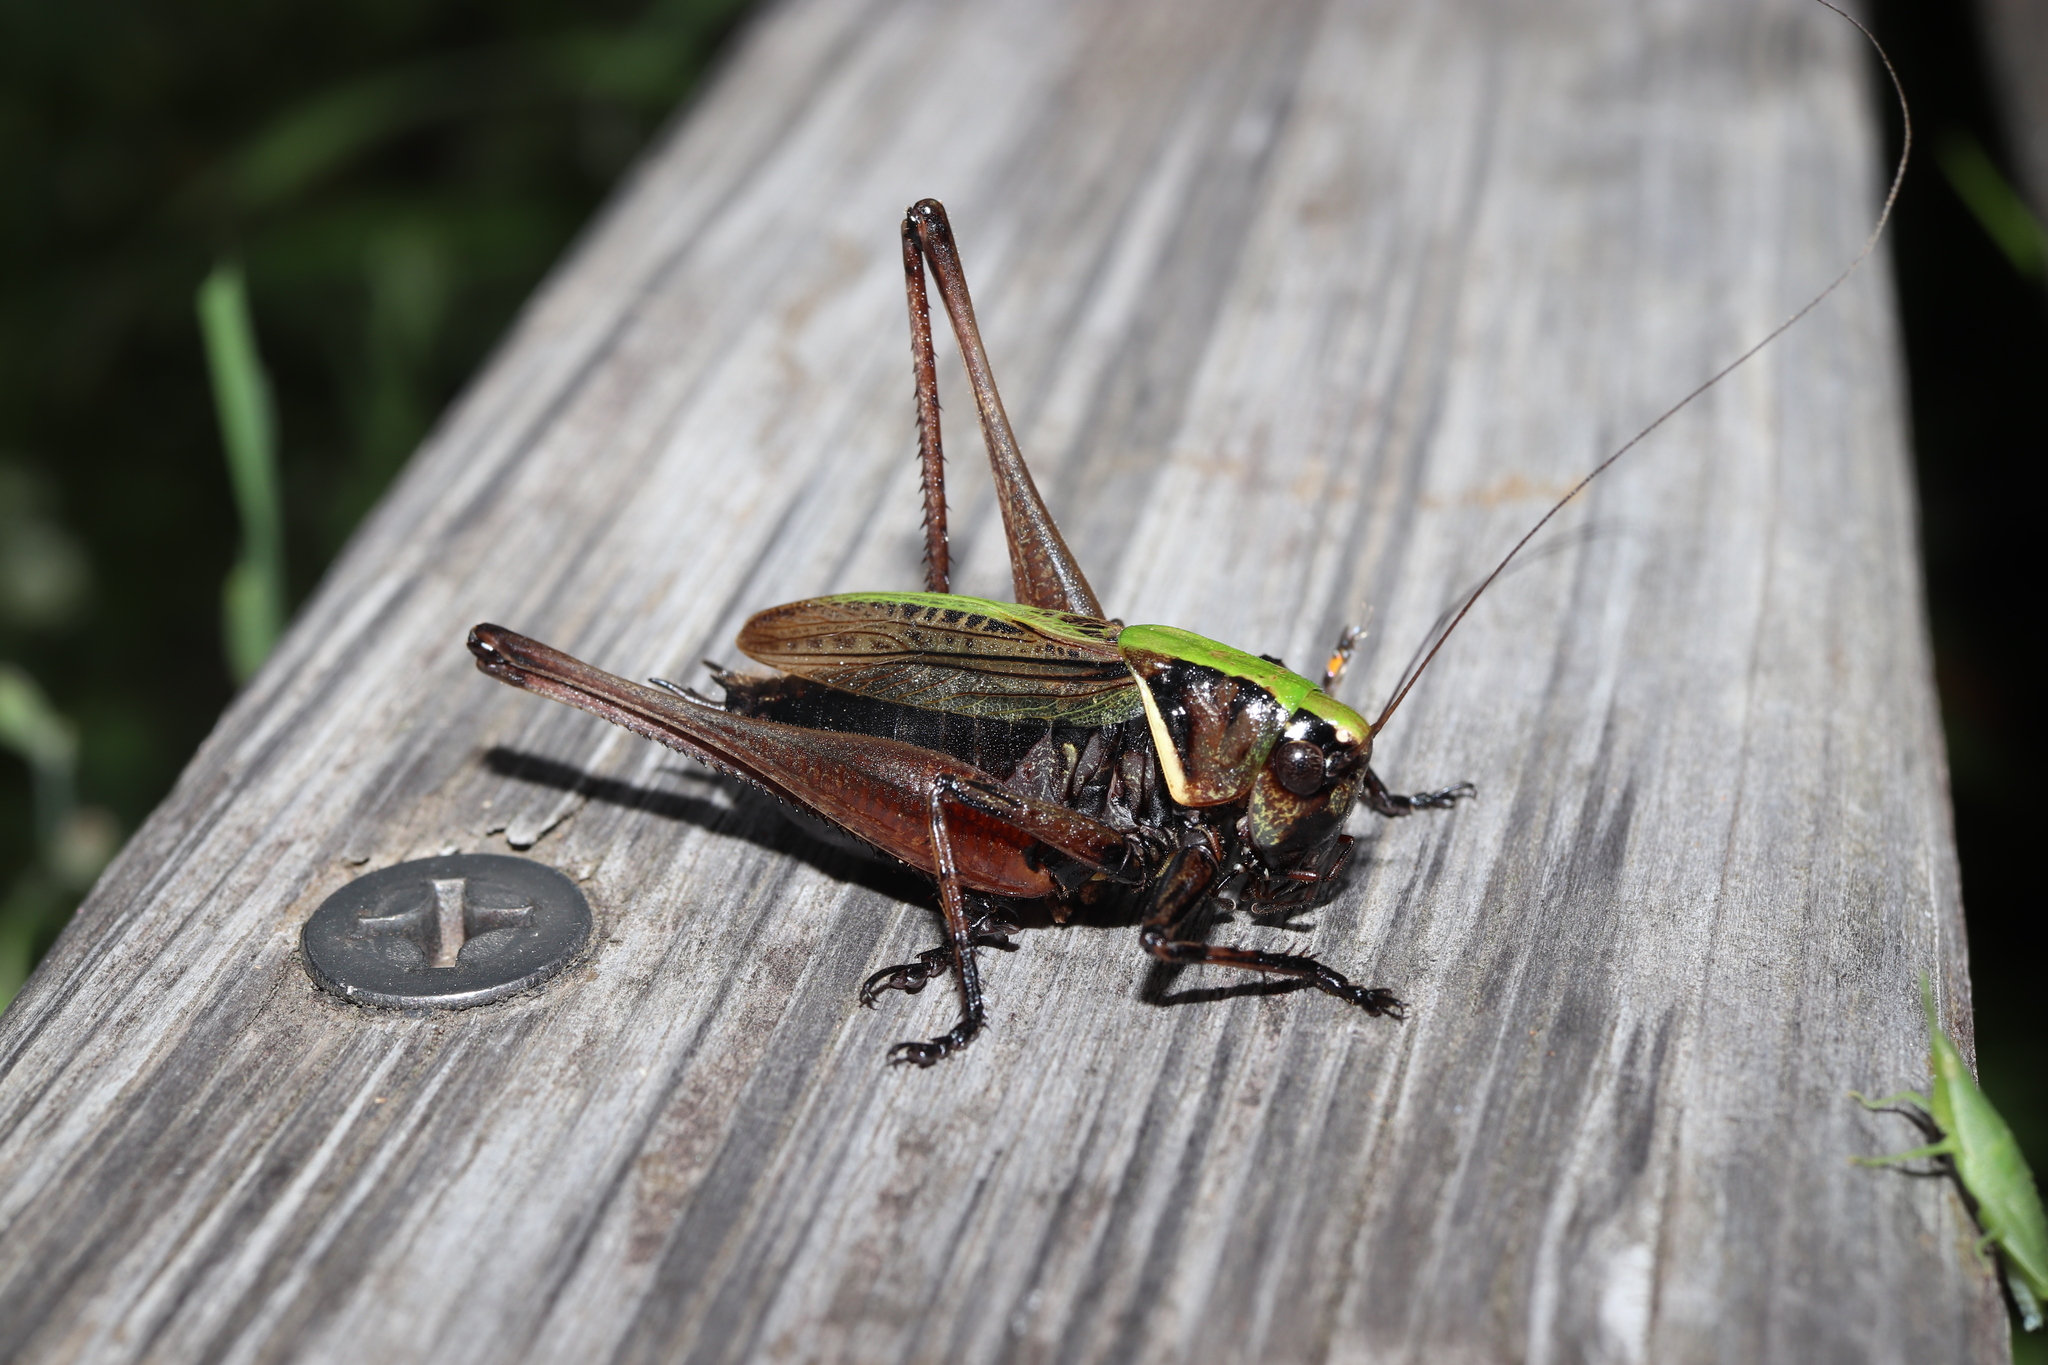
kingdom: Animalia
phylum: Arthropoda
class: Insecta
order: Orthoptera
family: Tettigoniidae
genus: Eobiana
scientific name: Eobiana engelhardti
